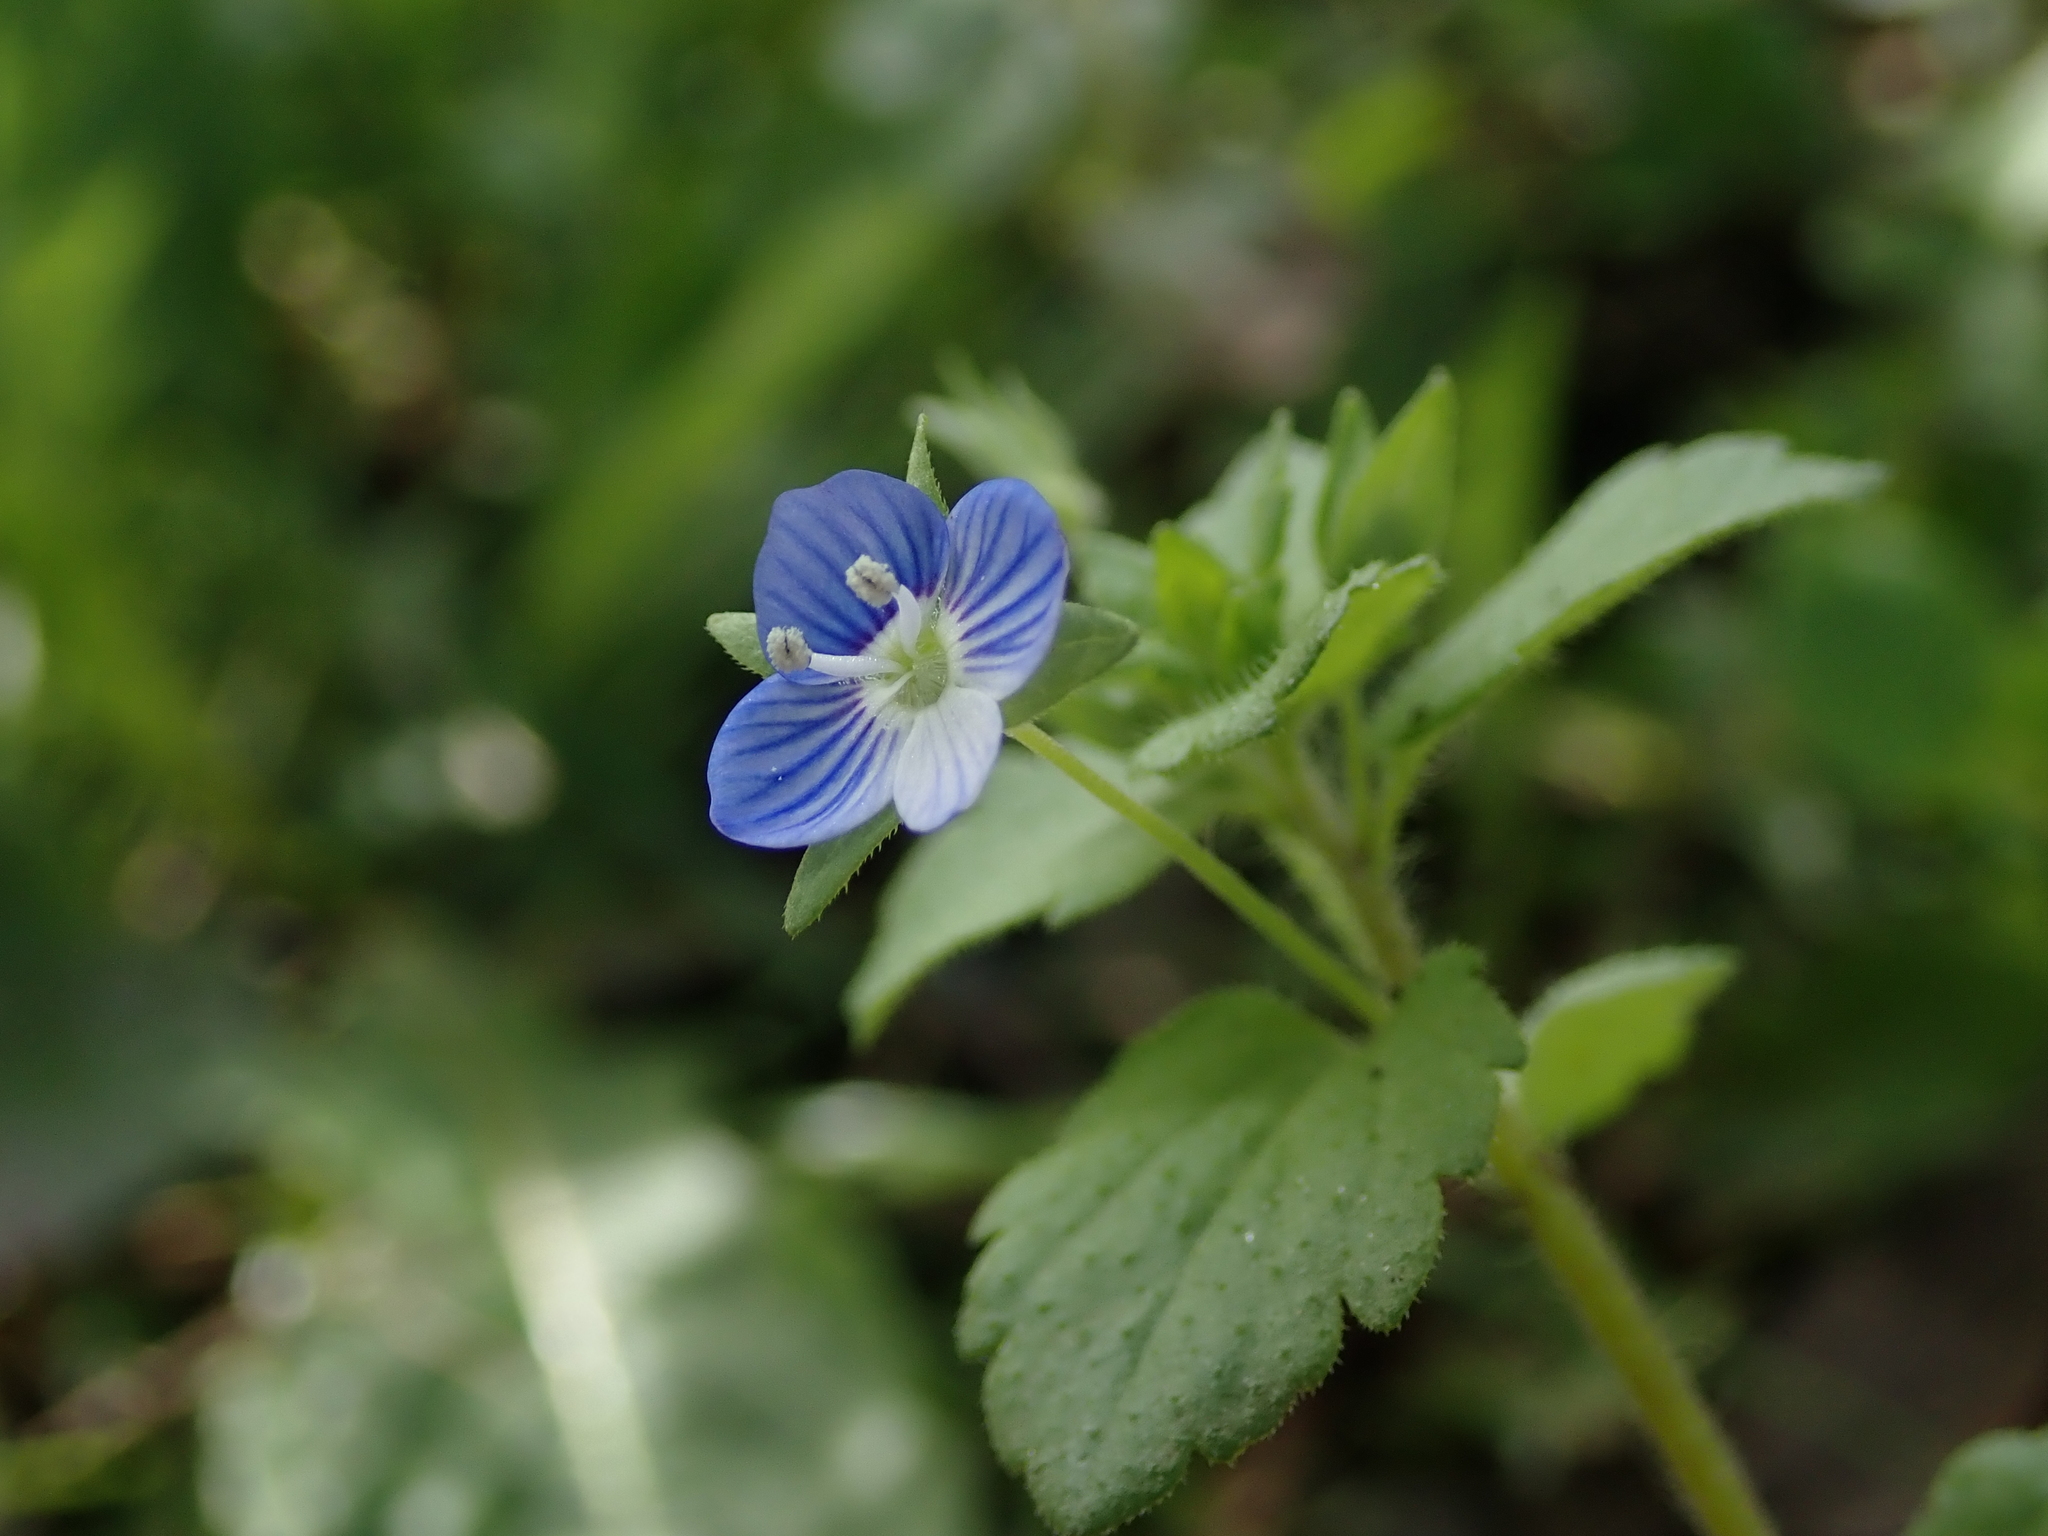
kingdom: Plantae
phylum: Tracheophyta
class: Magnoliopsida
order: Lamiales
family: Plantaginaceae
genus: Veronica
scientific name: Veronica persica
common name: Common field-speedwell
